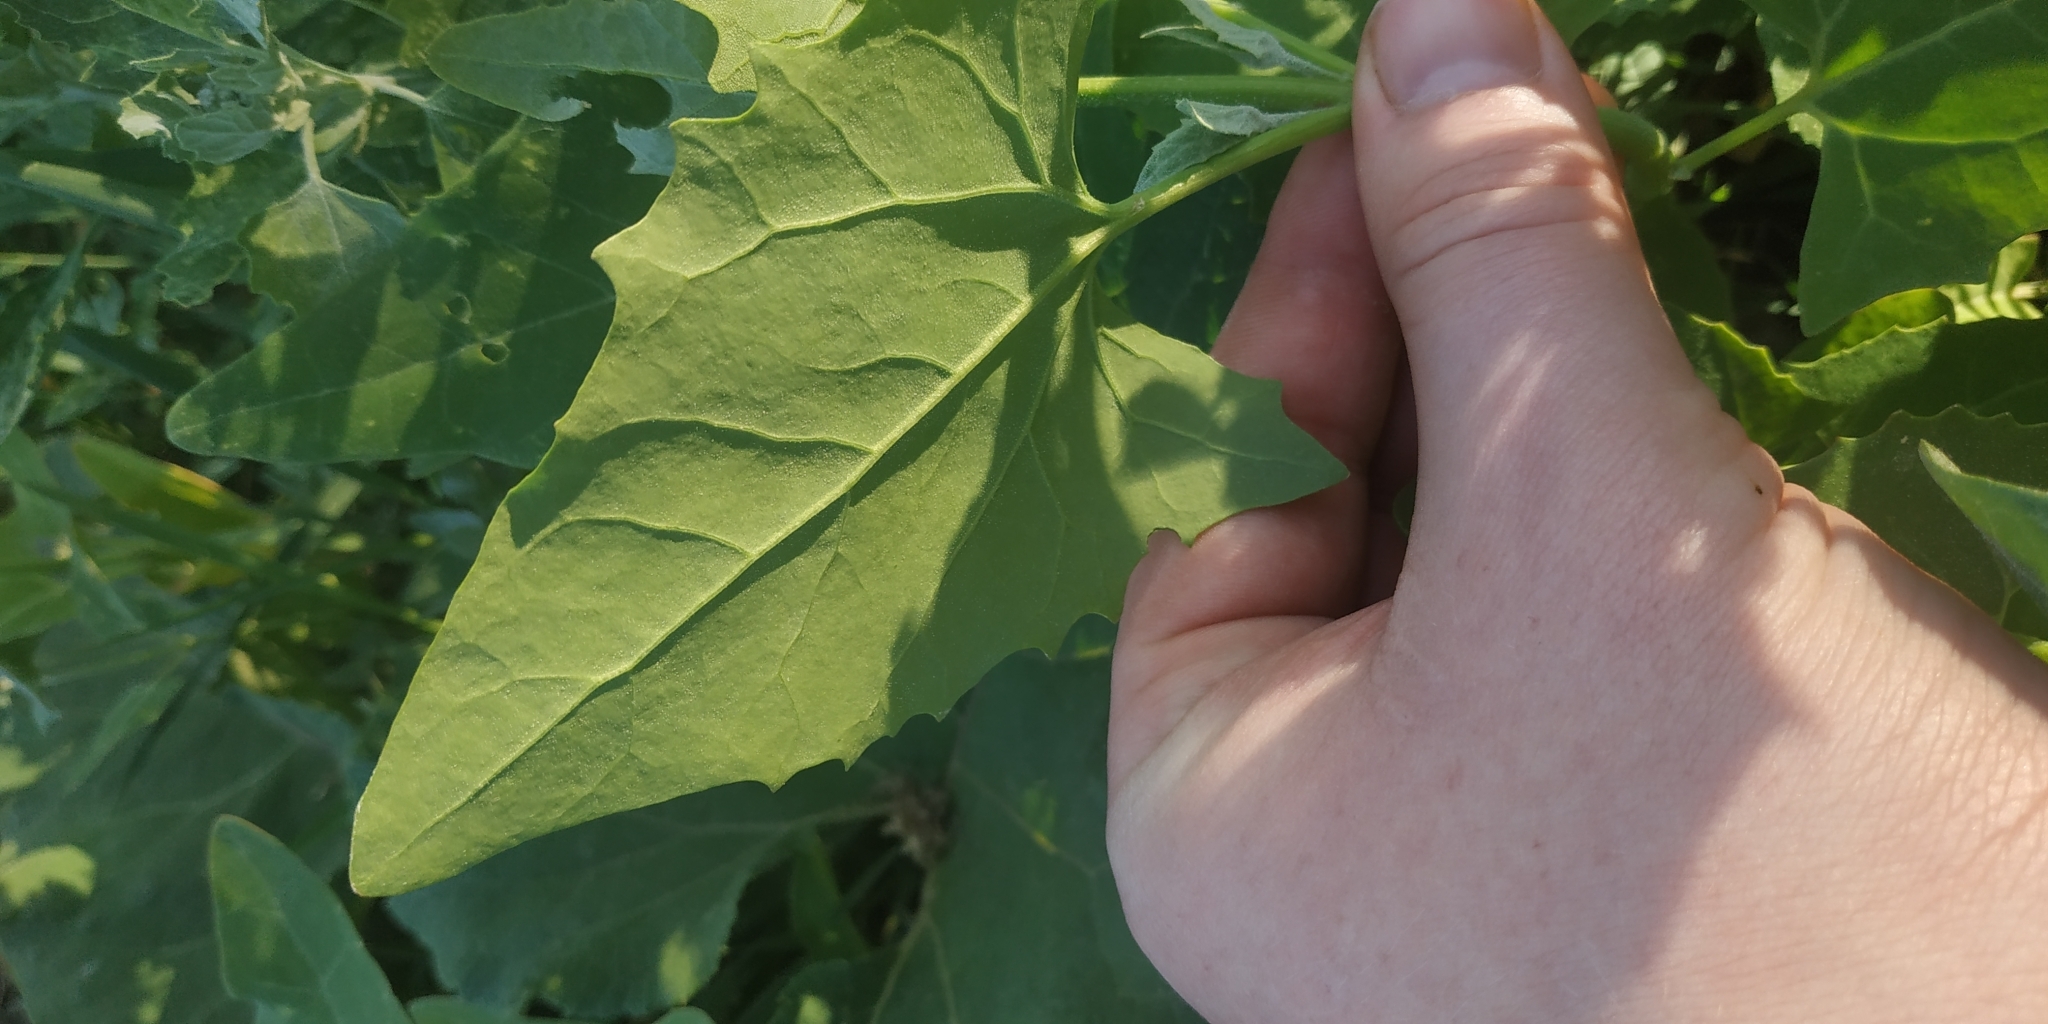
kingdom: Plantae
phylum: Tracheophyta
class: Magnoliopsida
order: Caryophyllales
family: Amaranthaceae
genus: Atriplex
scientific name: Atriplex sagittata
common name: Purple orache
